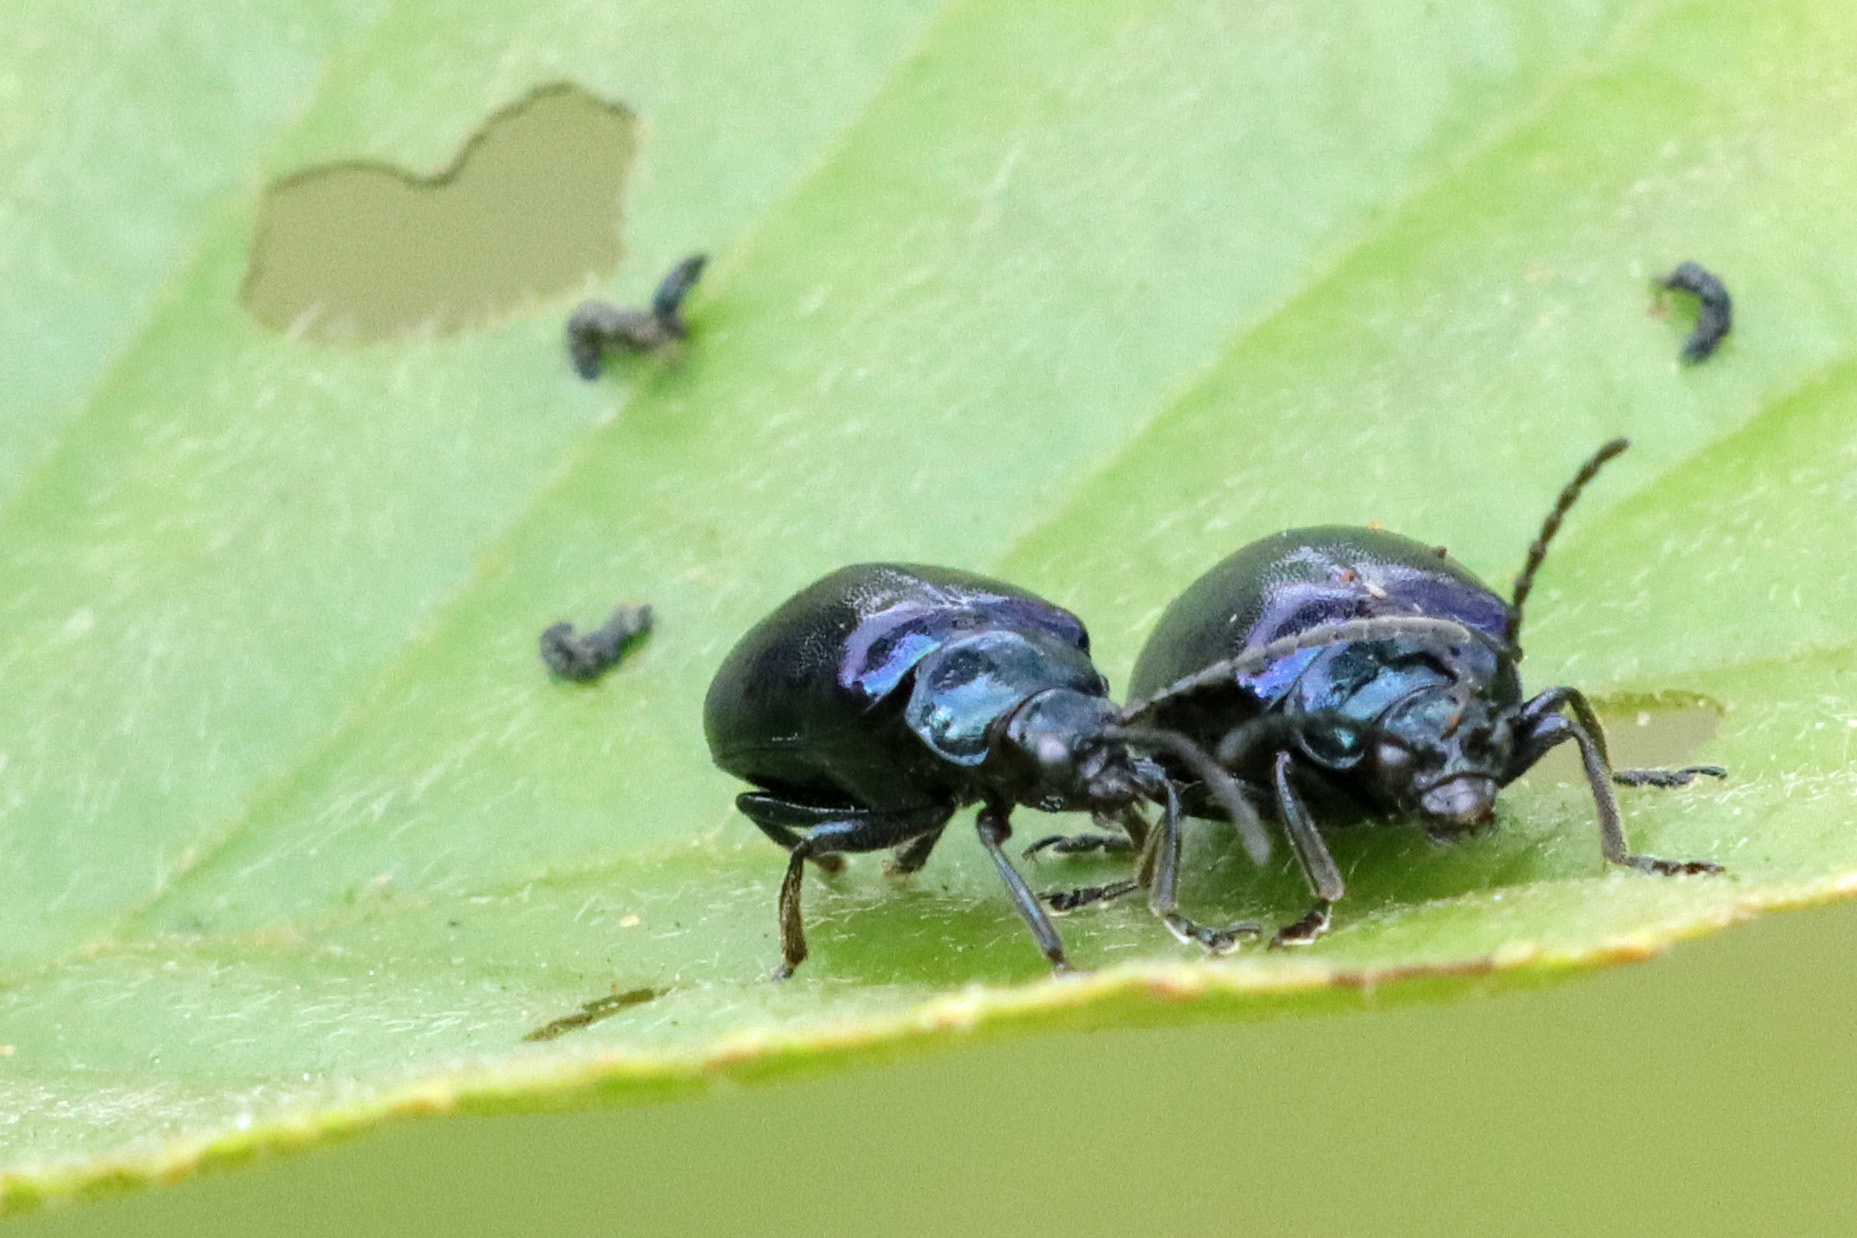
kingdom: Animalia
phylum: Arthropoda
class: Insecta
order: Coleoptera
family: Chrysomelidae
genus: Agelastica
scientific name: Agelastica alni
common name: Alder leaf beetle
